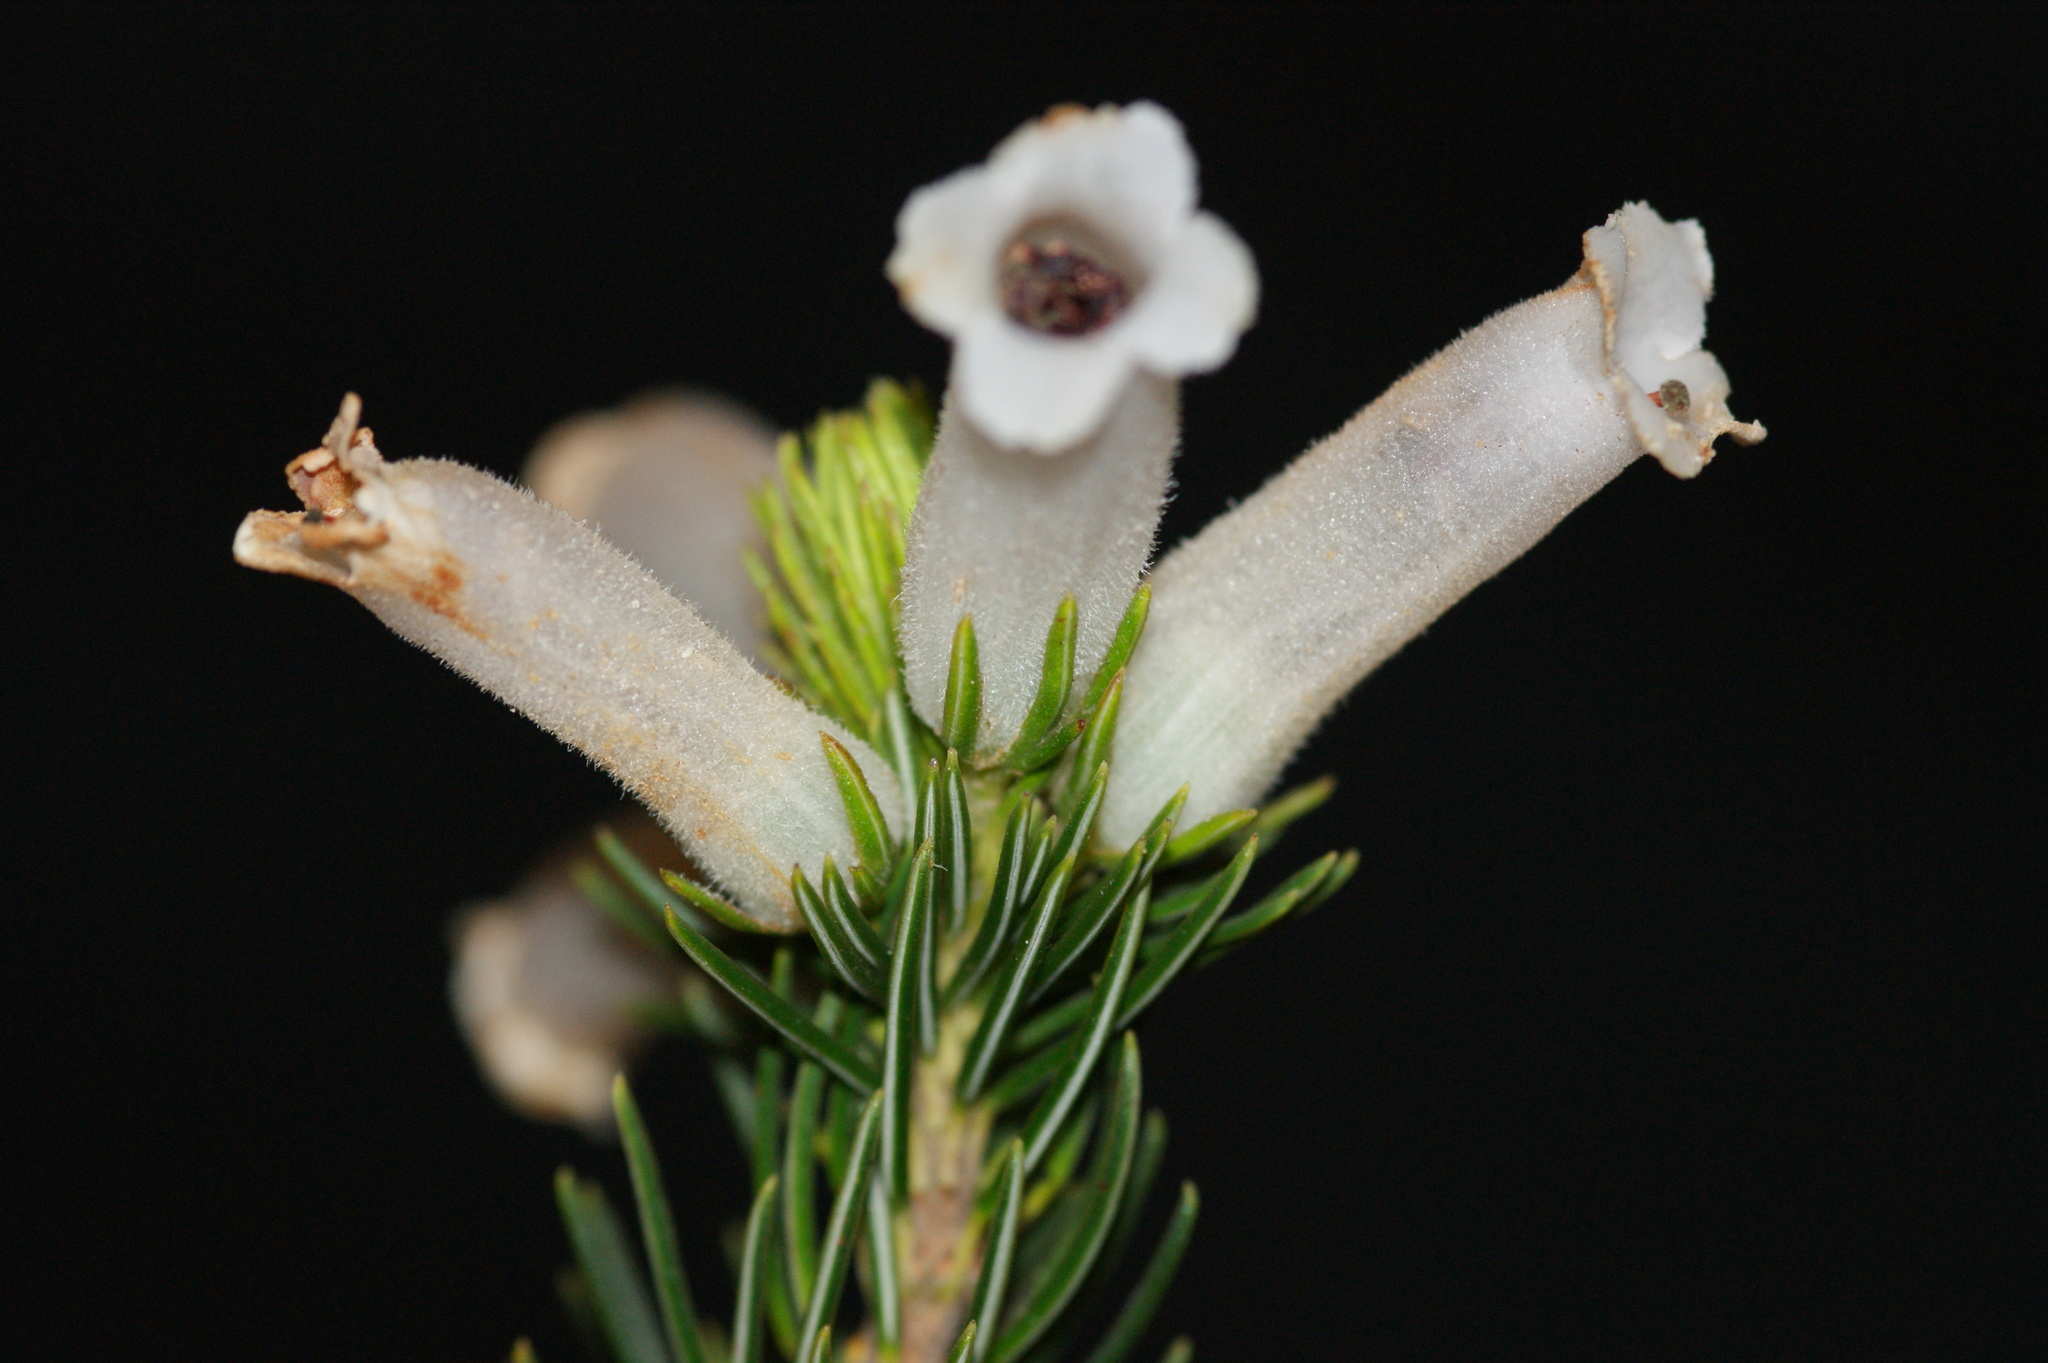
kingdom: Plantae
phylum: Tracheophyta
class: Magnoliopsida
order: Ericales
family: Ericaceae
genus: Erica
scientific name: Erica viscaria
